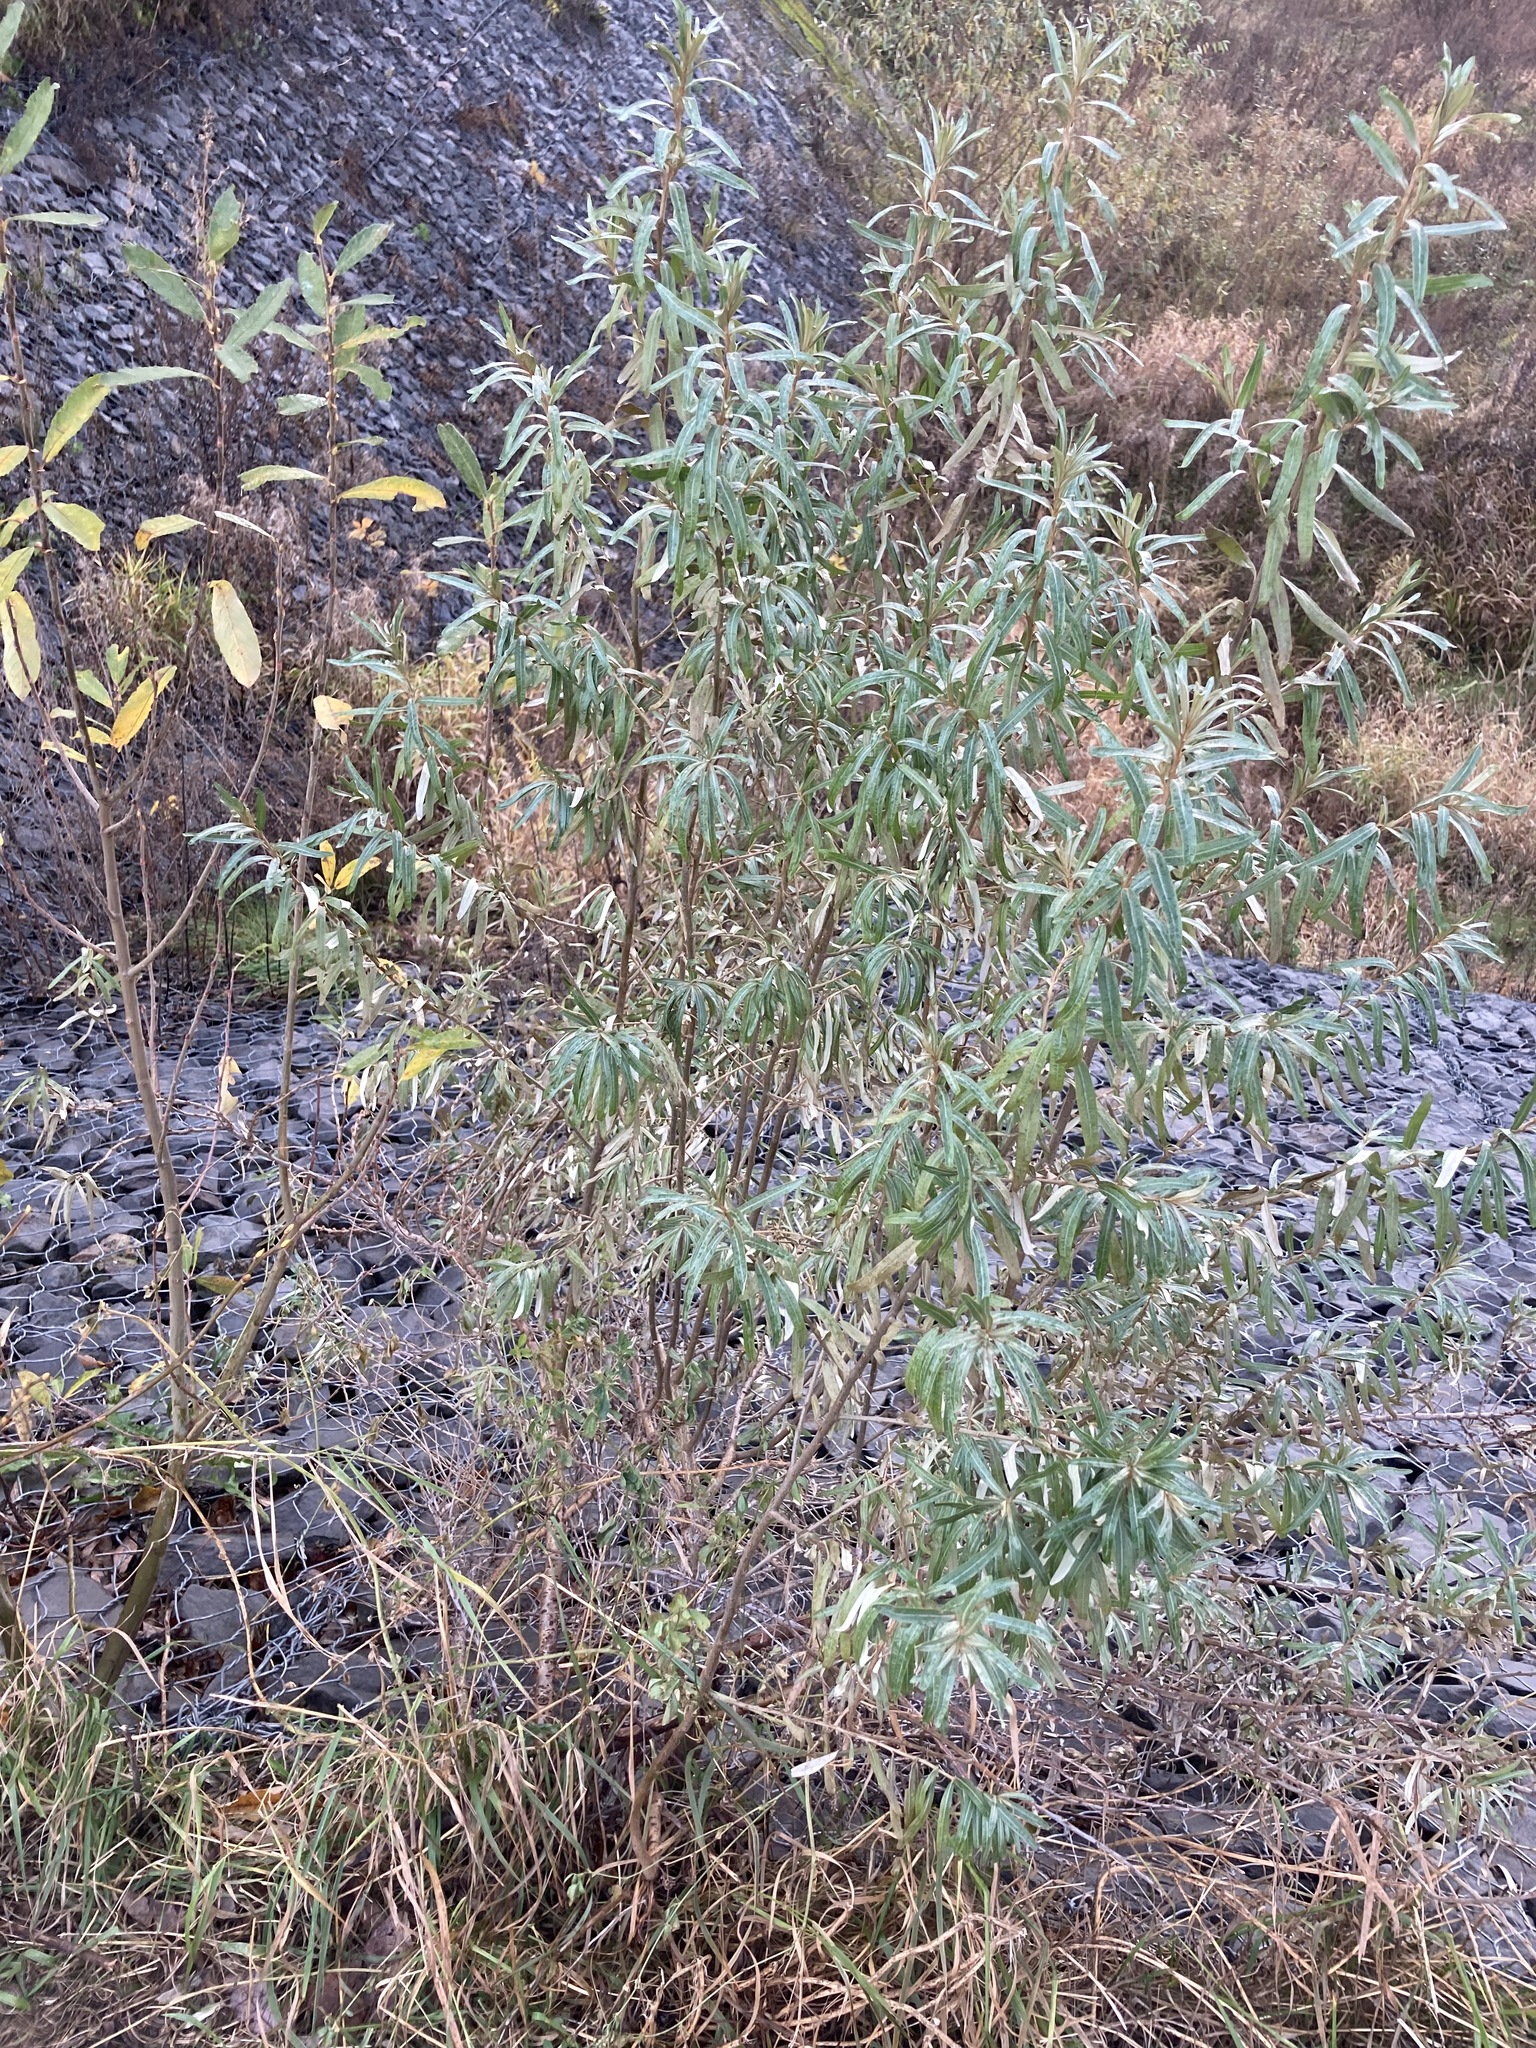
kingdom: Plantae
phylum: Tracheophyta
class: Magnoliopsida
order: Rosales
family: Elaeagnaceae
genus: Hippophae
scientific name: Hippophae rhamnoides
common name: Sea-buckthorn
